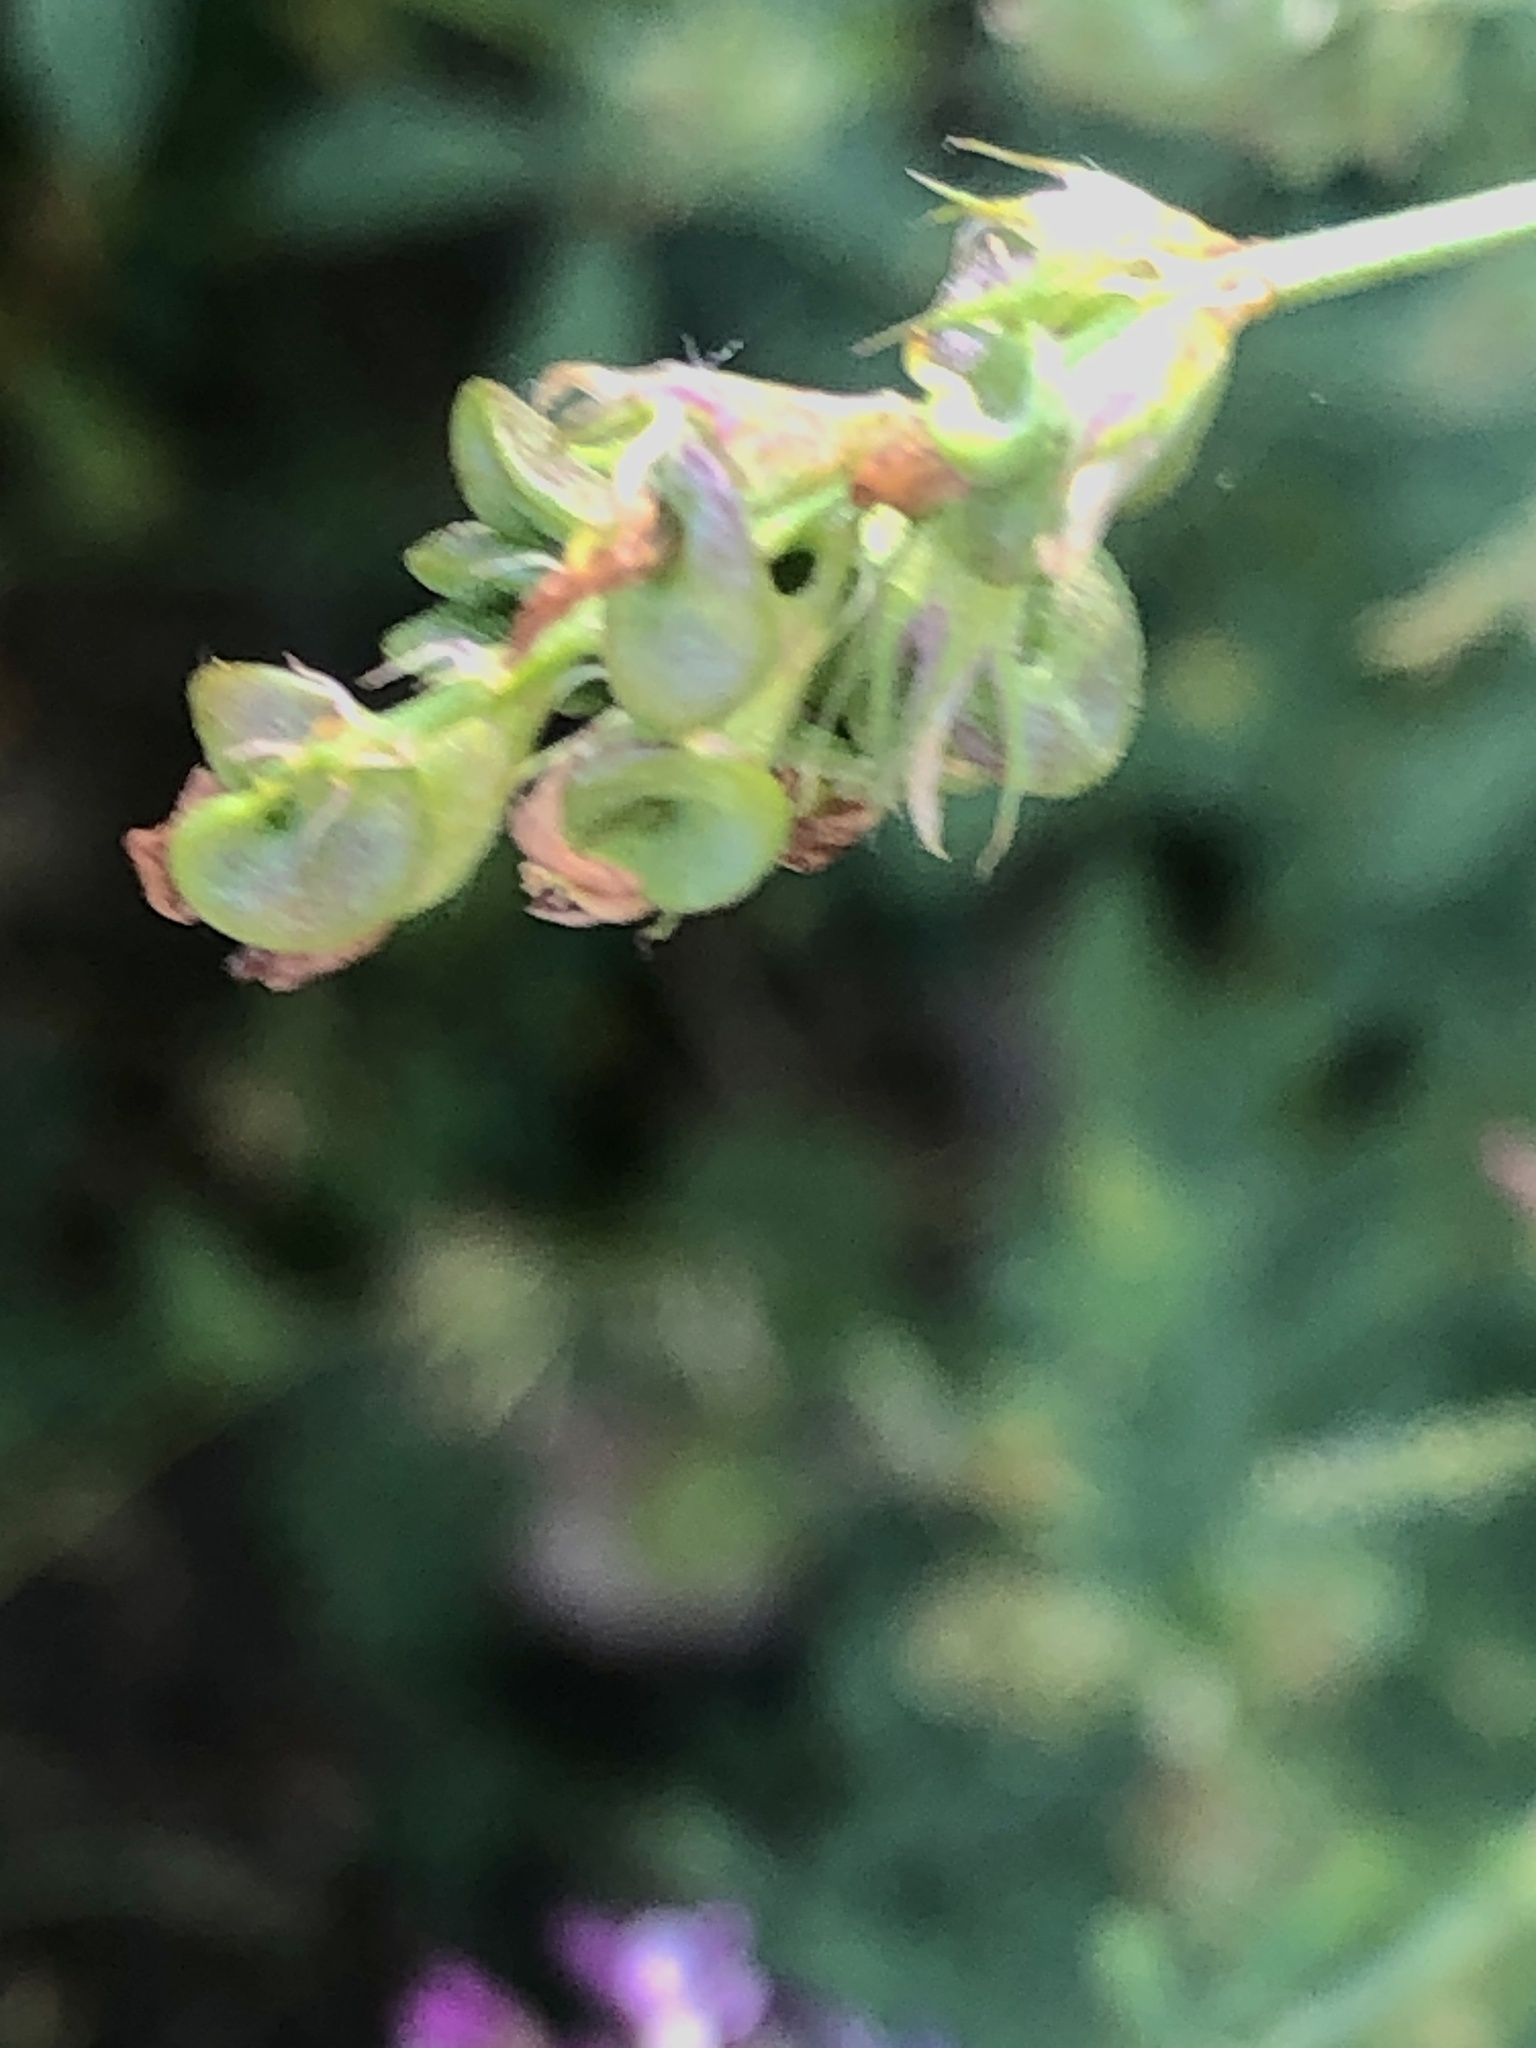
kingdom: Plantae
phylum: Tracheophyta
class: Magnoliopsida
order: Fabales
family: Fabaceae
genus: Medicago
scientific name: Medicago sativa
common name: Alfalfa
